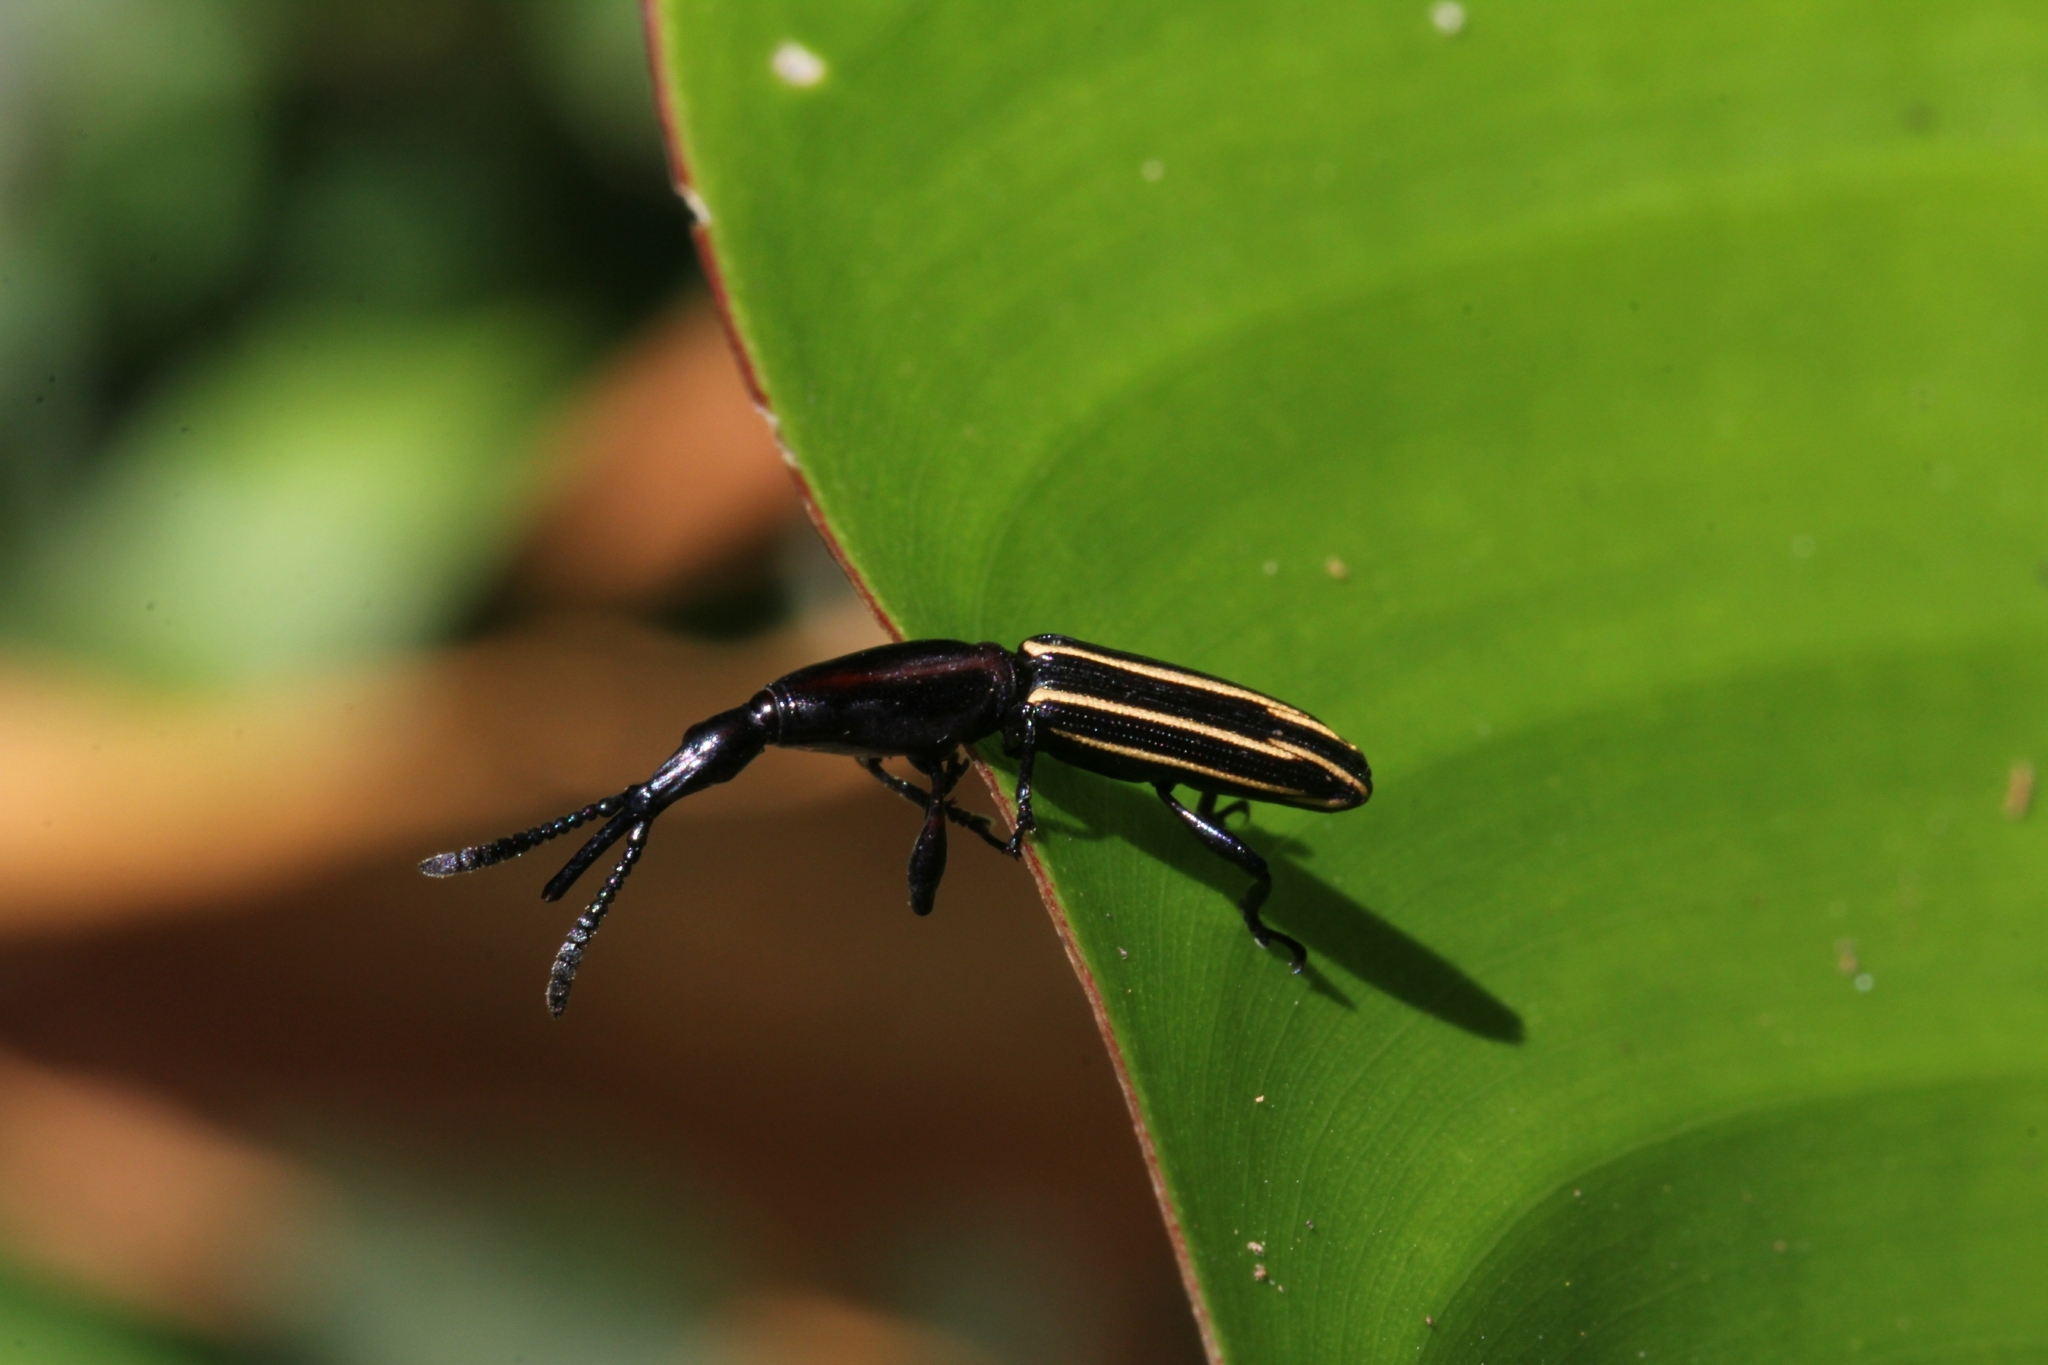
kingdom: Animalia
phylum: Arthropoda
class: Insecta
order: Coleoptera
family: Brentidae
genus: Brentus
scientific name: Brentus mexicanus
